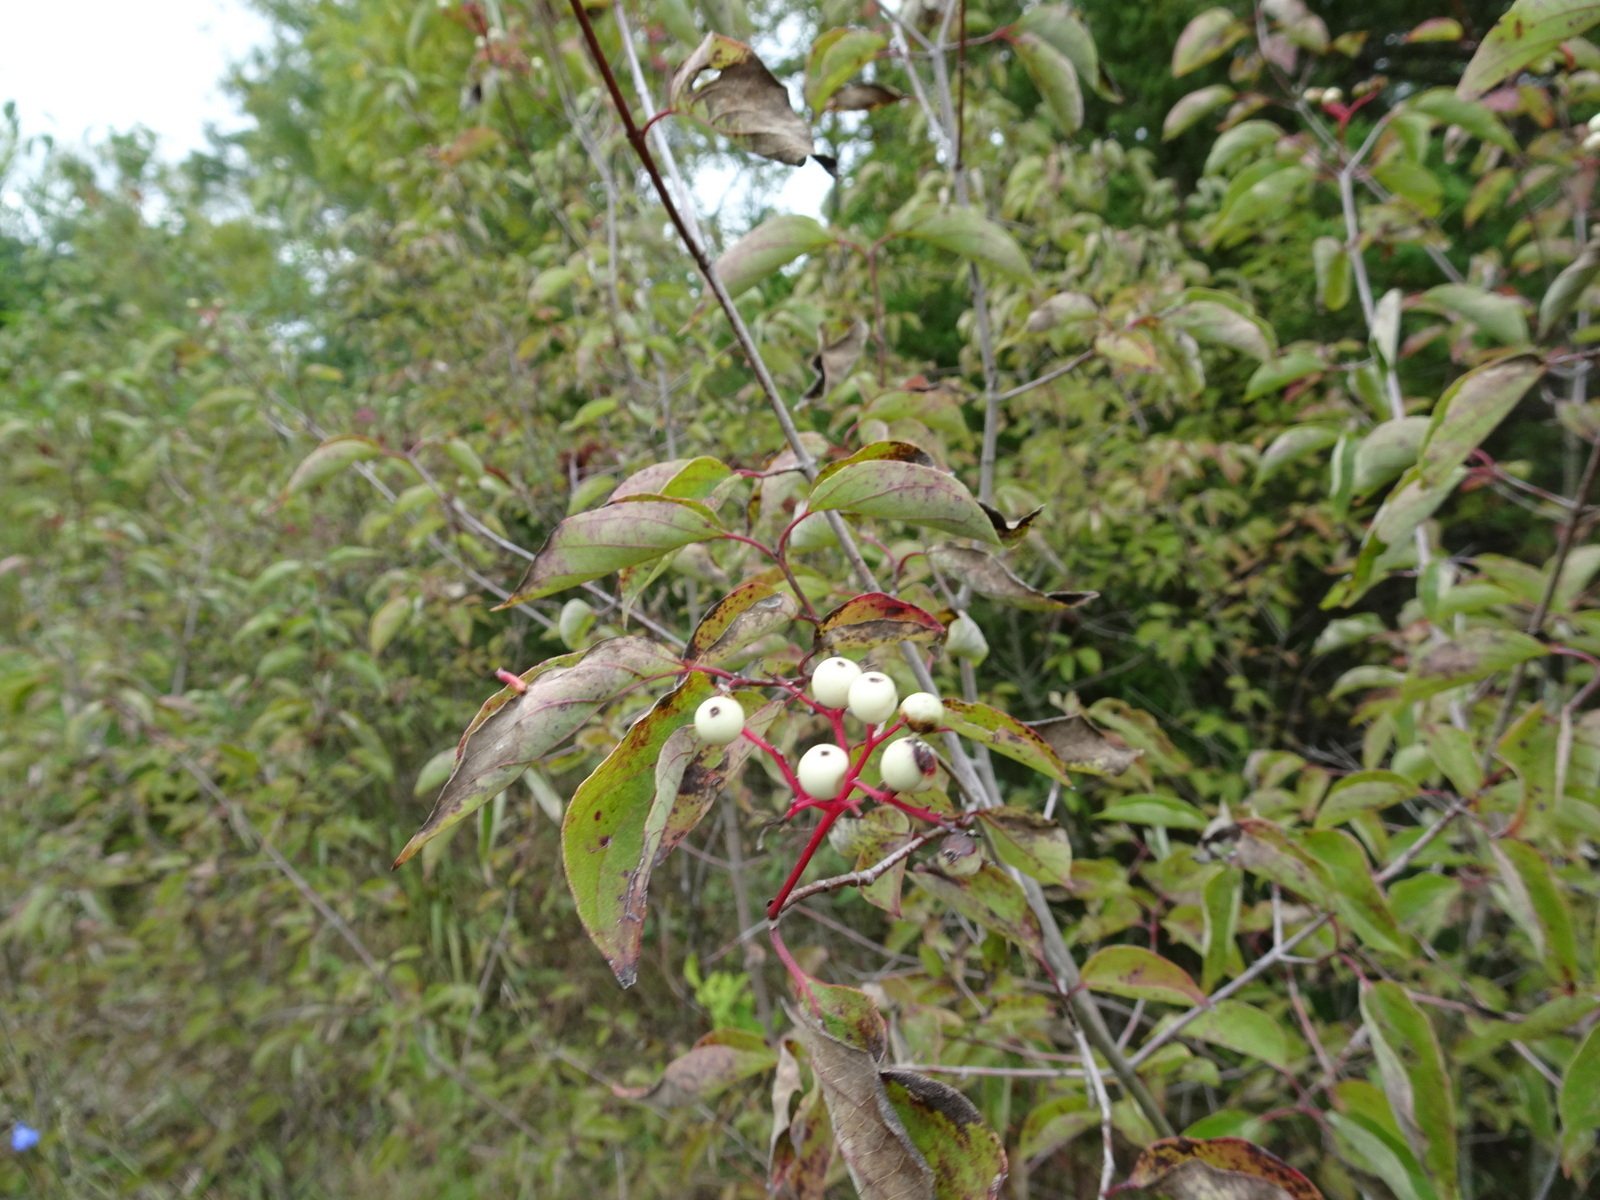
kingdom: Plantae
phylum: Tracheophyta
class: Magnoliopsida
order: Cornales
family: Cornaceae
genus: Cornus
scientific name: Cornus drummondii
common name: Rough-leaf dogwood
